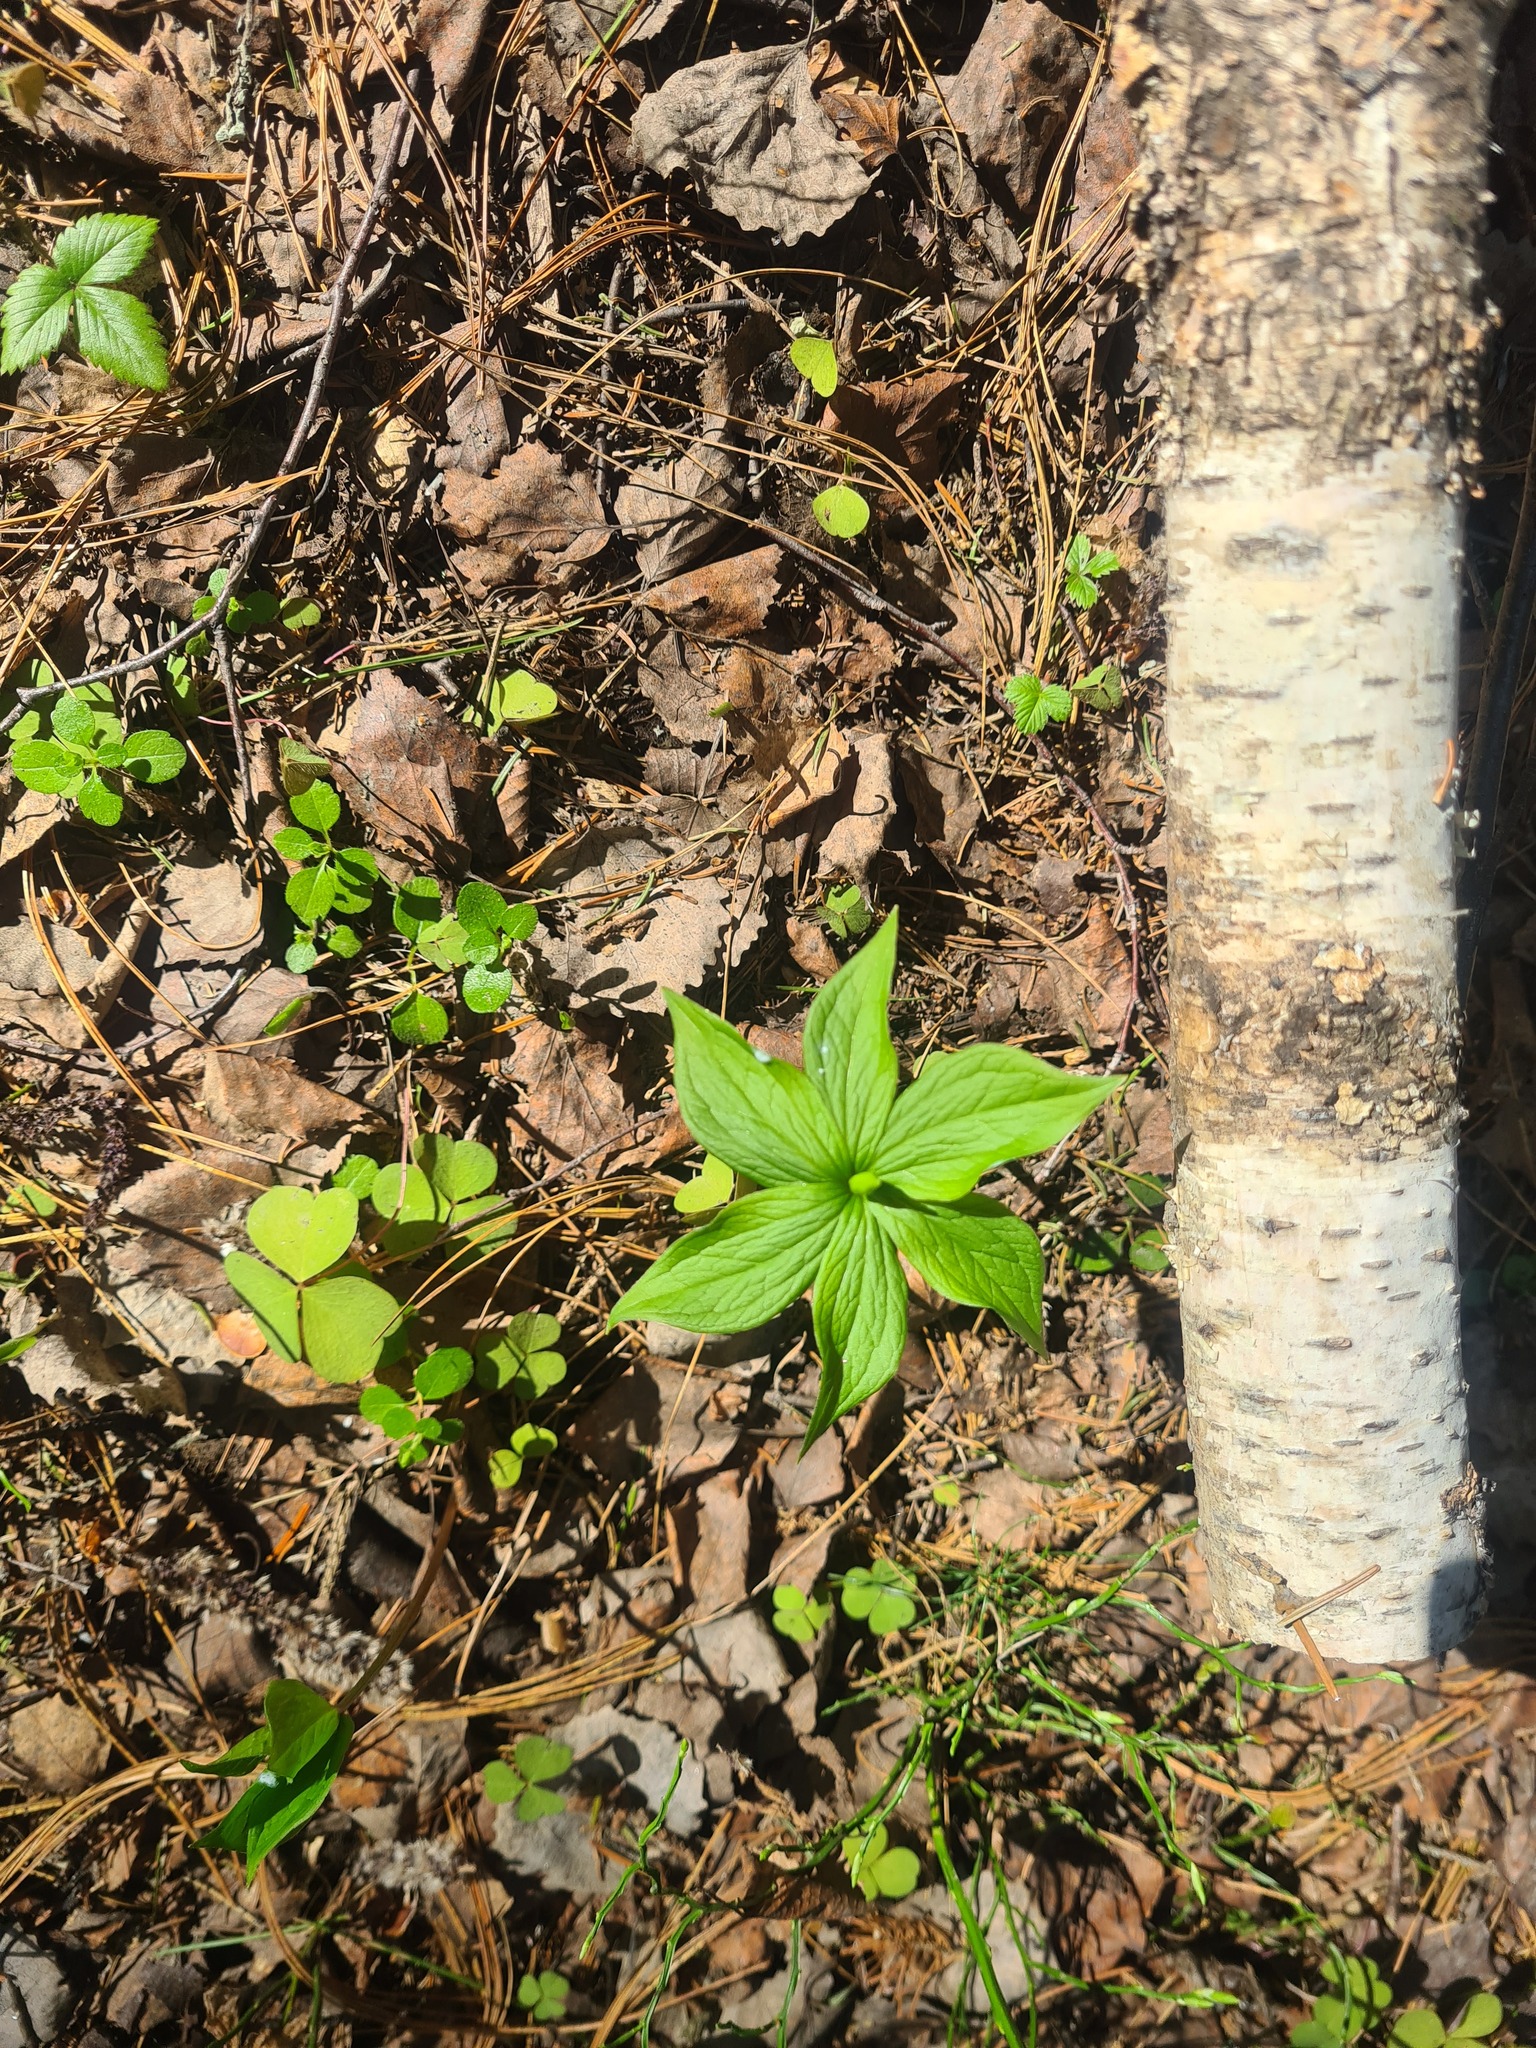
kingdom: Plantae
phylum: Tracheophyta
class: Liliopsida
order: Liliales
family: Melanthiaceae
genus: Paris
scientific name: Paris quadrifolia
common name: Herb-paris
